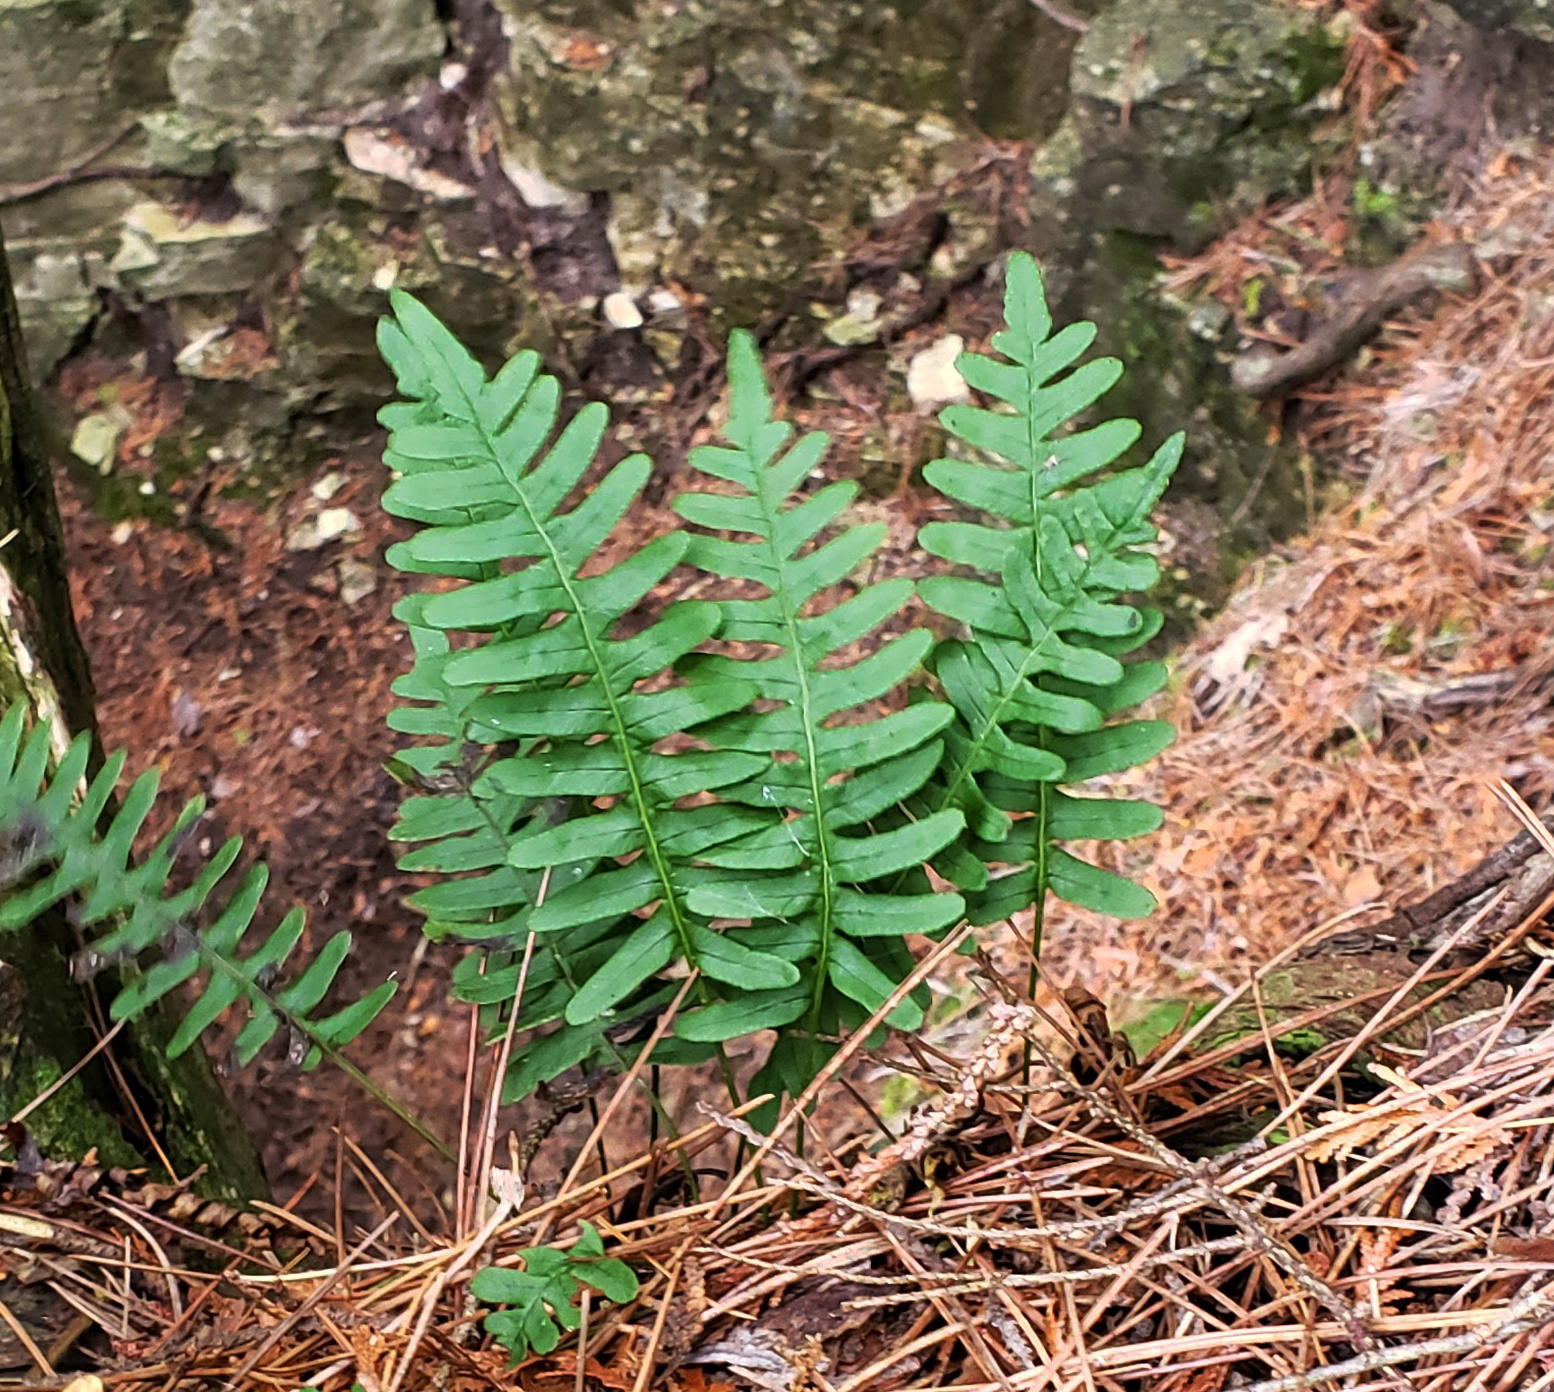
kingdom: Plantae
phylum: Tracheophyta
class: Polypodiopsida
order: Polypodiales
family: Polypodiaceae
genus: Polypodium
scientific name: Polypodium virginianum
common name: American wall fern
